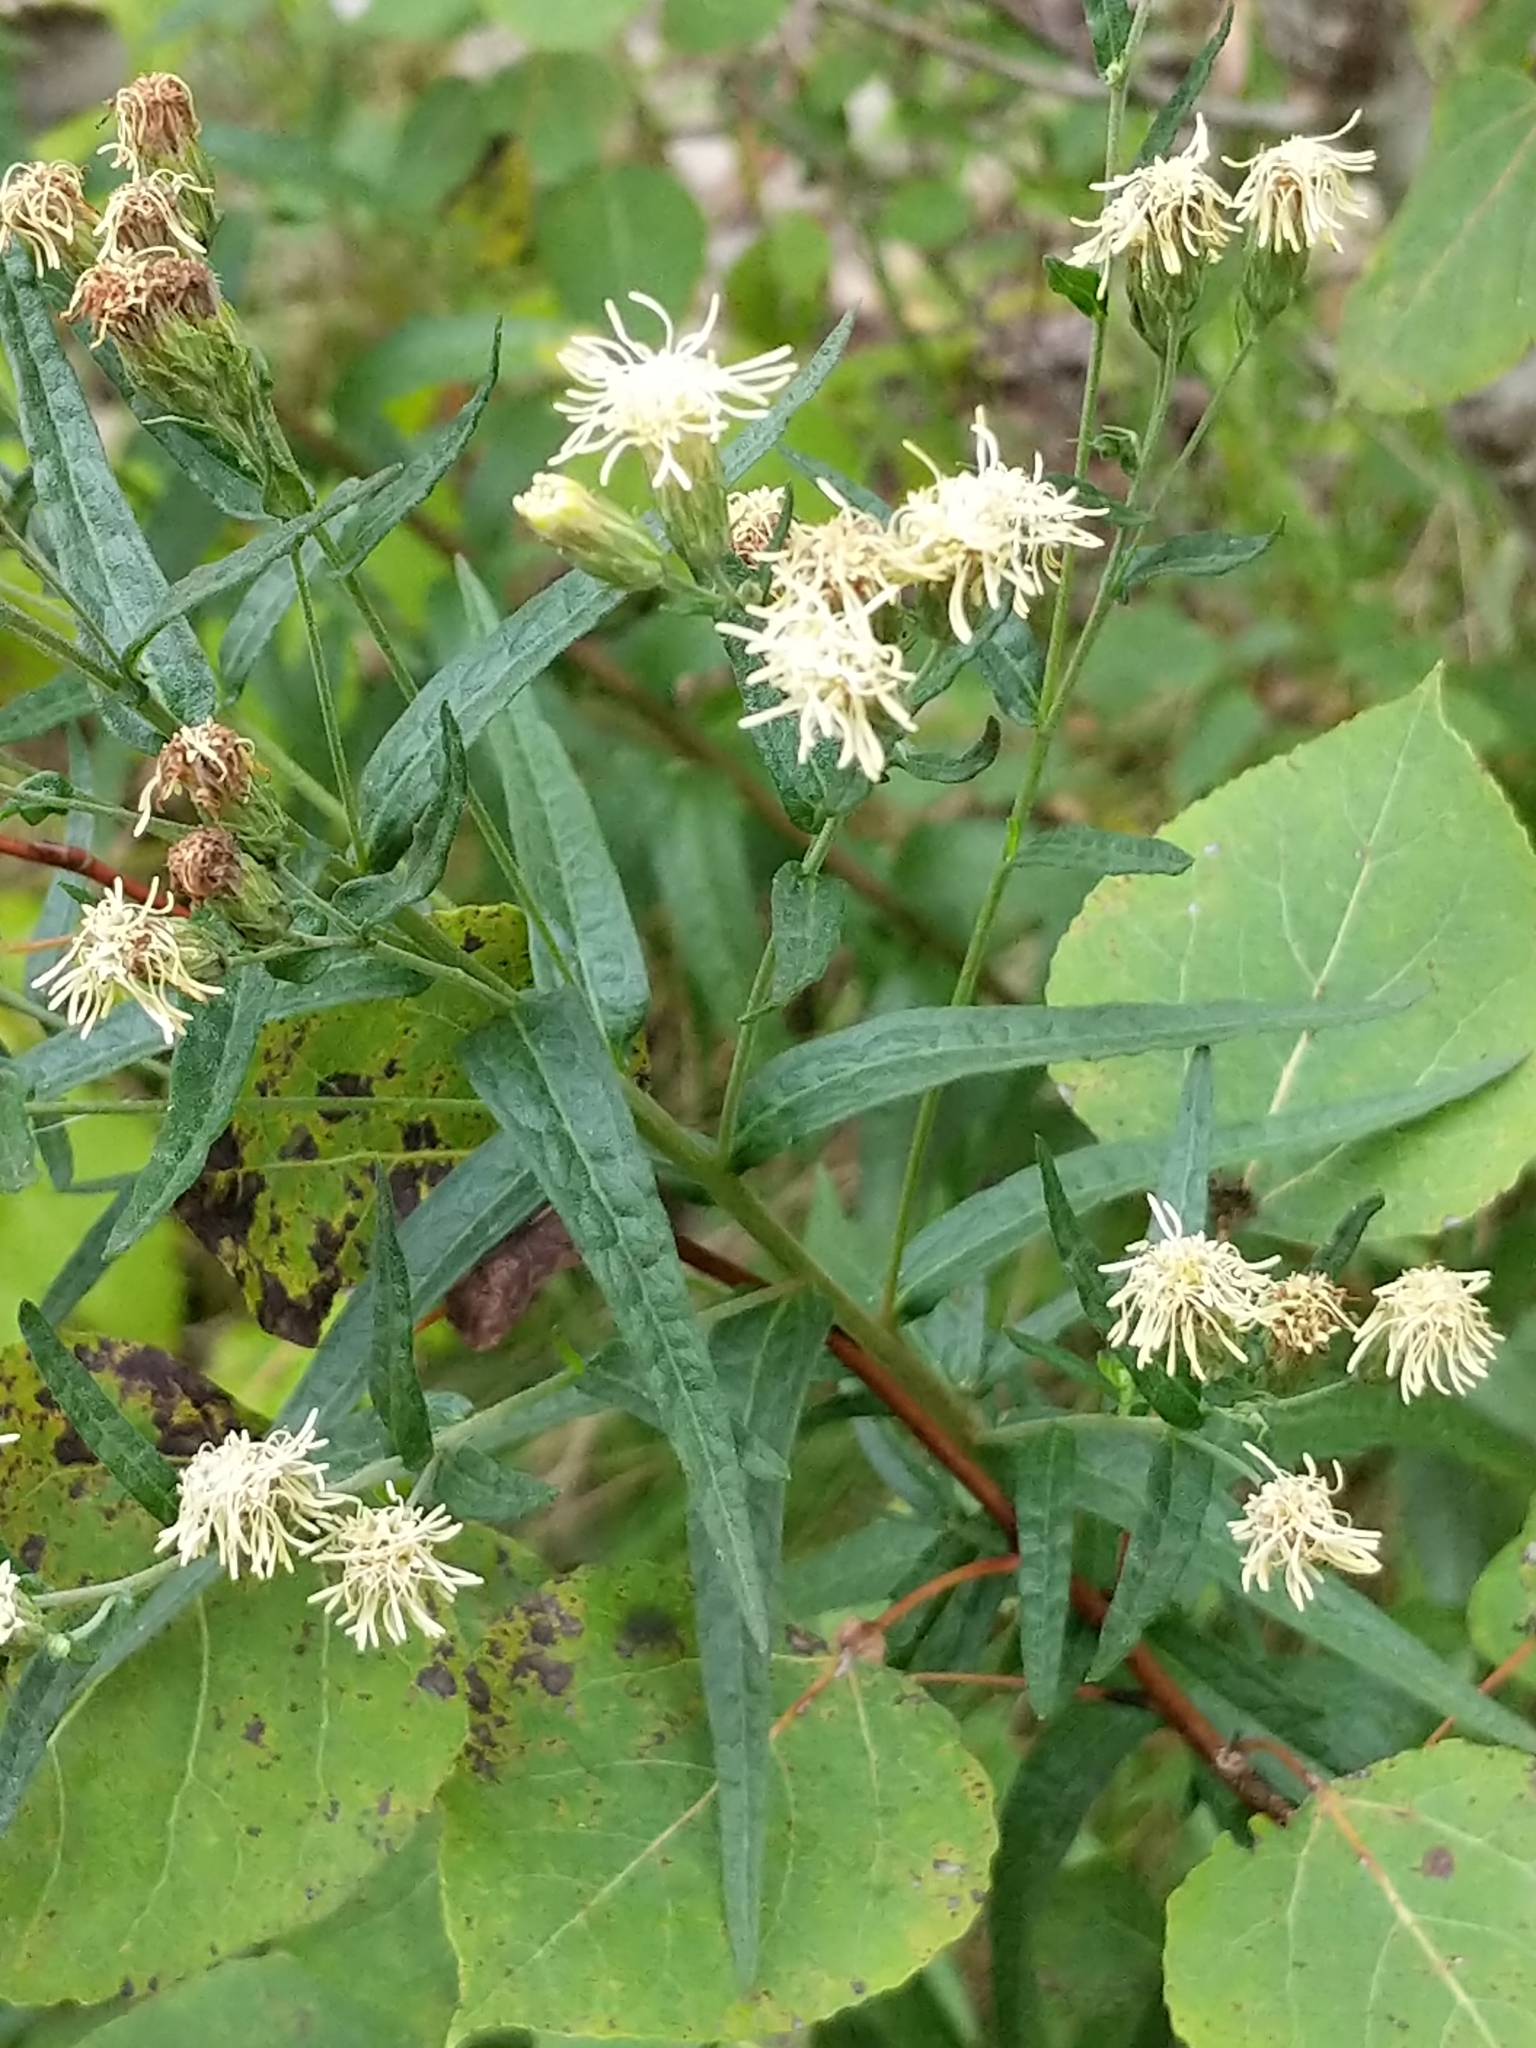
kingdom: Plantae
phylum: Tracheophyta
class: Magnoliopsida
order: Asterales
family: Asteraceae
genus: Brickellia
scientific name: Brickellia eupatorioides
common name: False boneset
